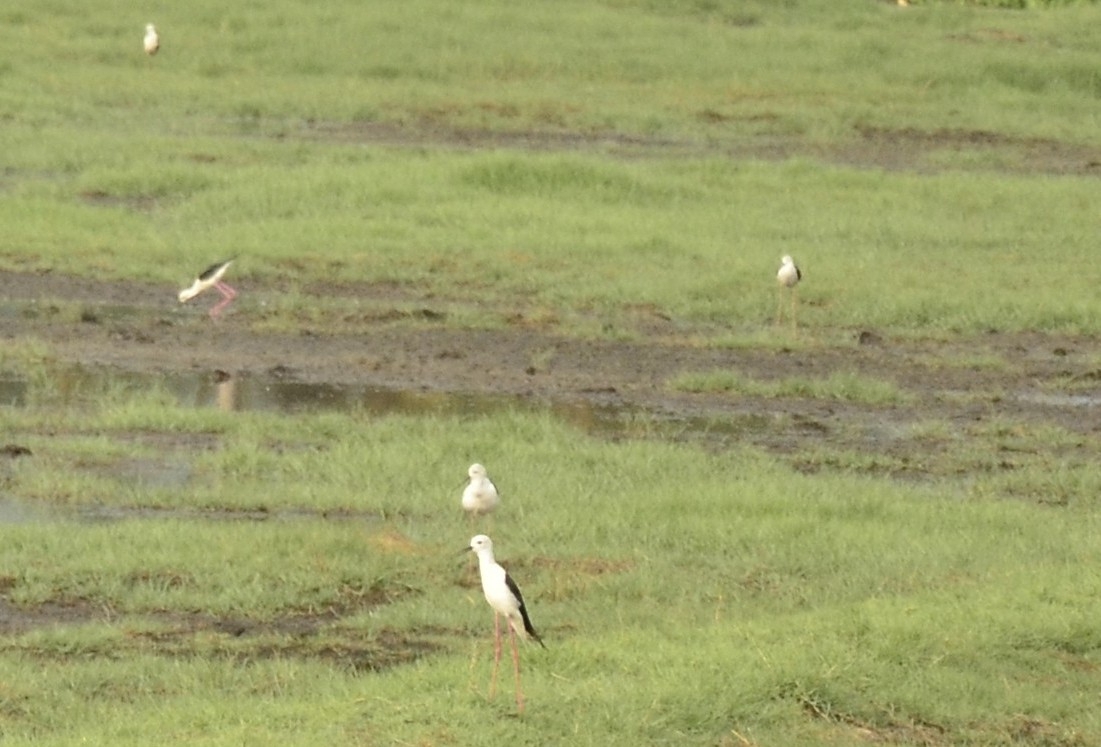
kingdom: Animalia
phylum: Chordata
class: Aves
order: Charadriiformes
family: Recurvirostridae
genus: Himantopus
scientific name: Himantopus himantopus
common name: Black-winged stilt
